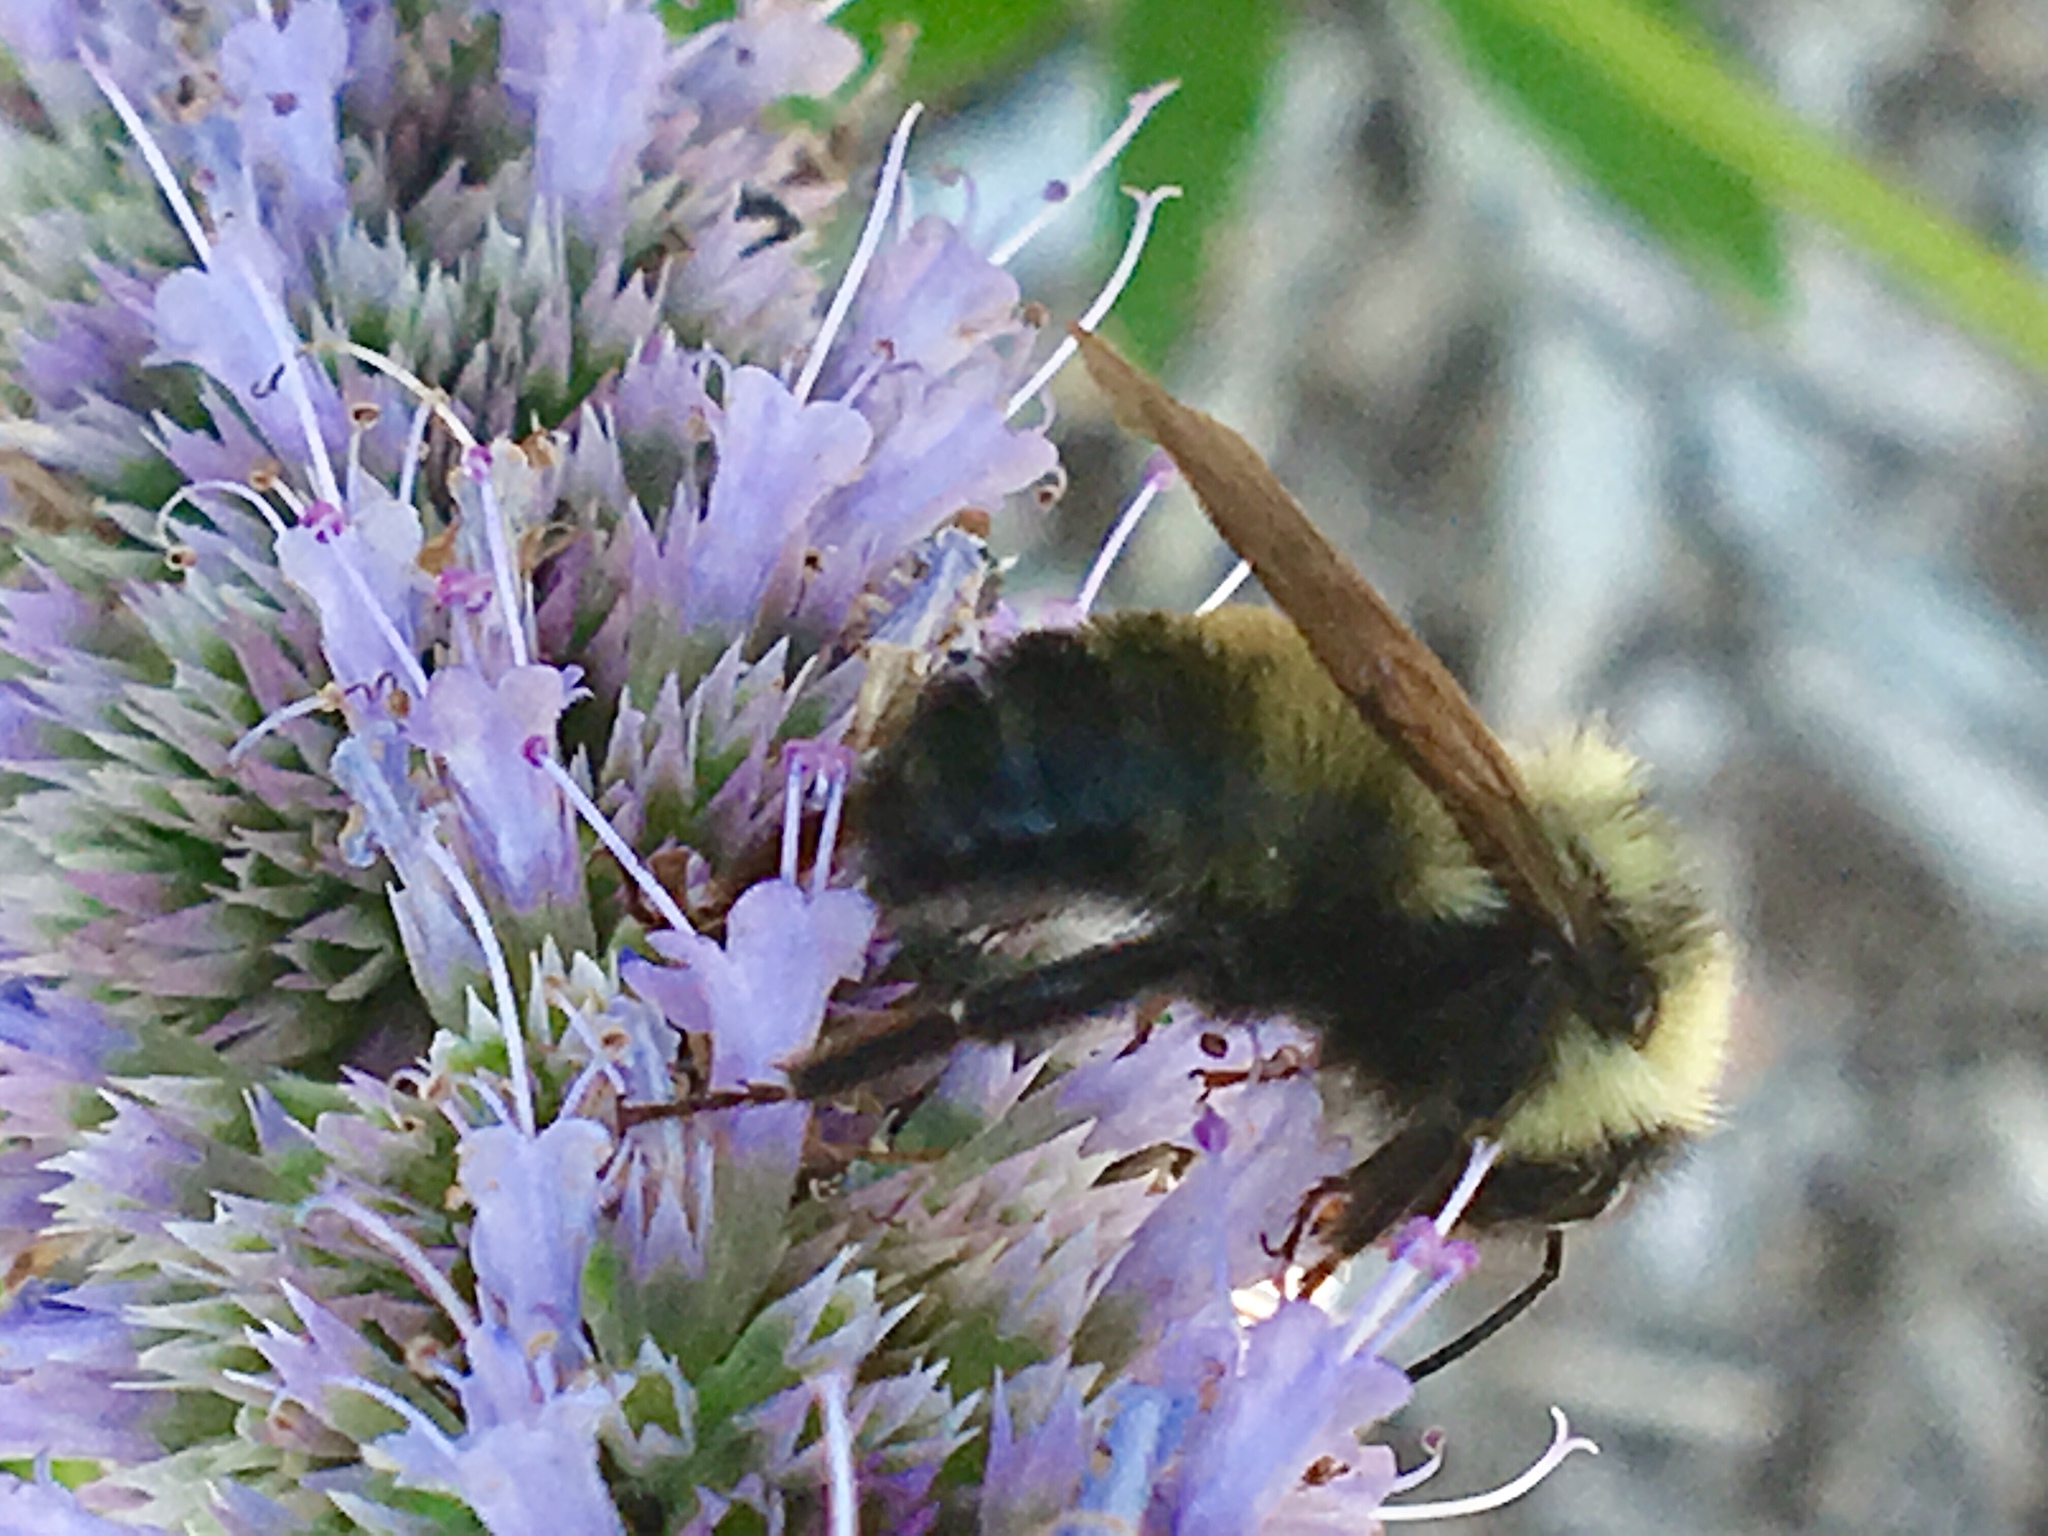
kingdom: Animalia
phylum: Arthropoda
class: Insecta
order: Hymenoptera
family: Apidae
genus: Bombus
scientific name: Bombus citrinus
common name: Lemon cuckoo bumble bee
